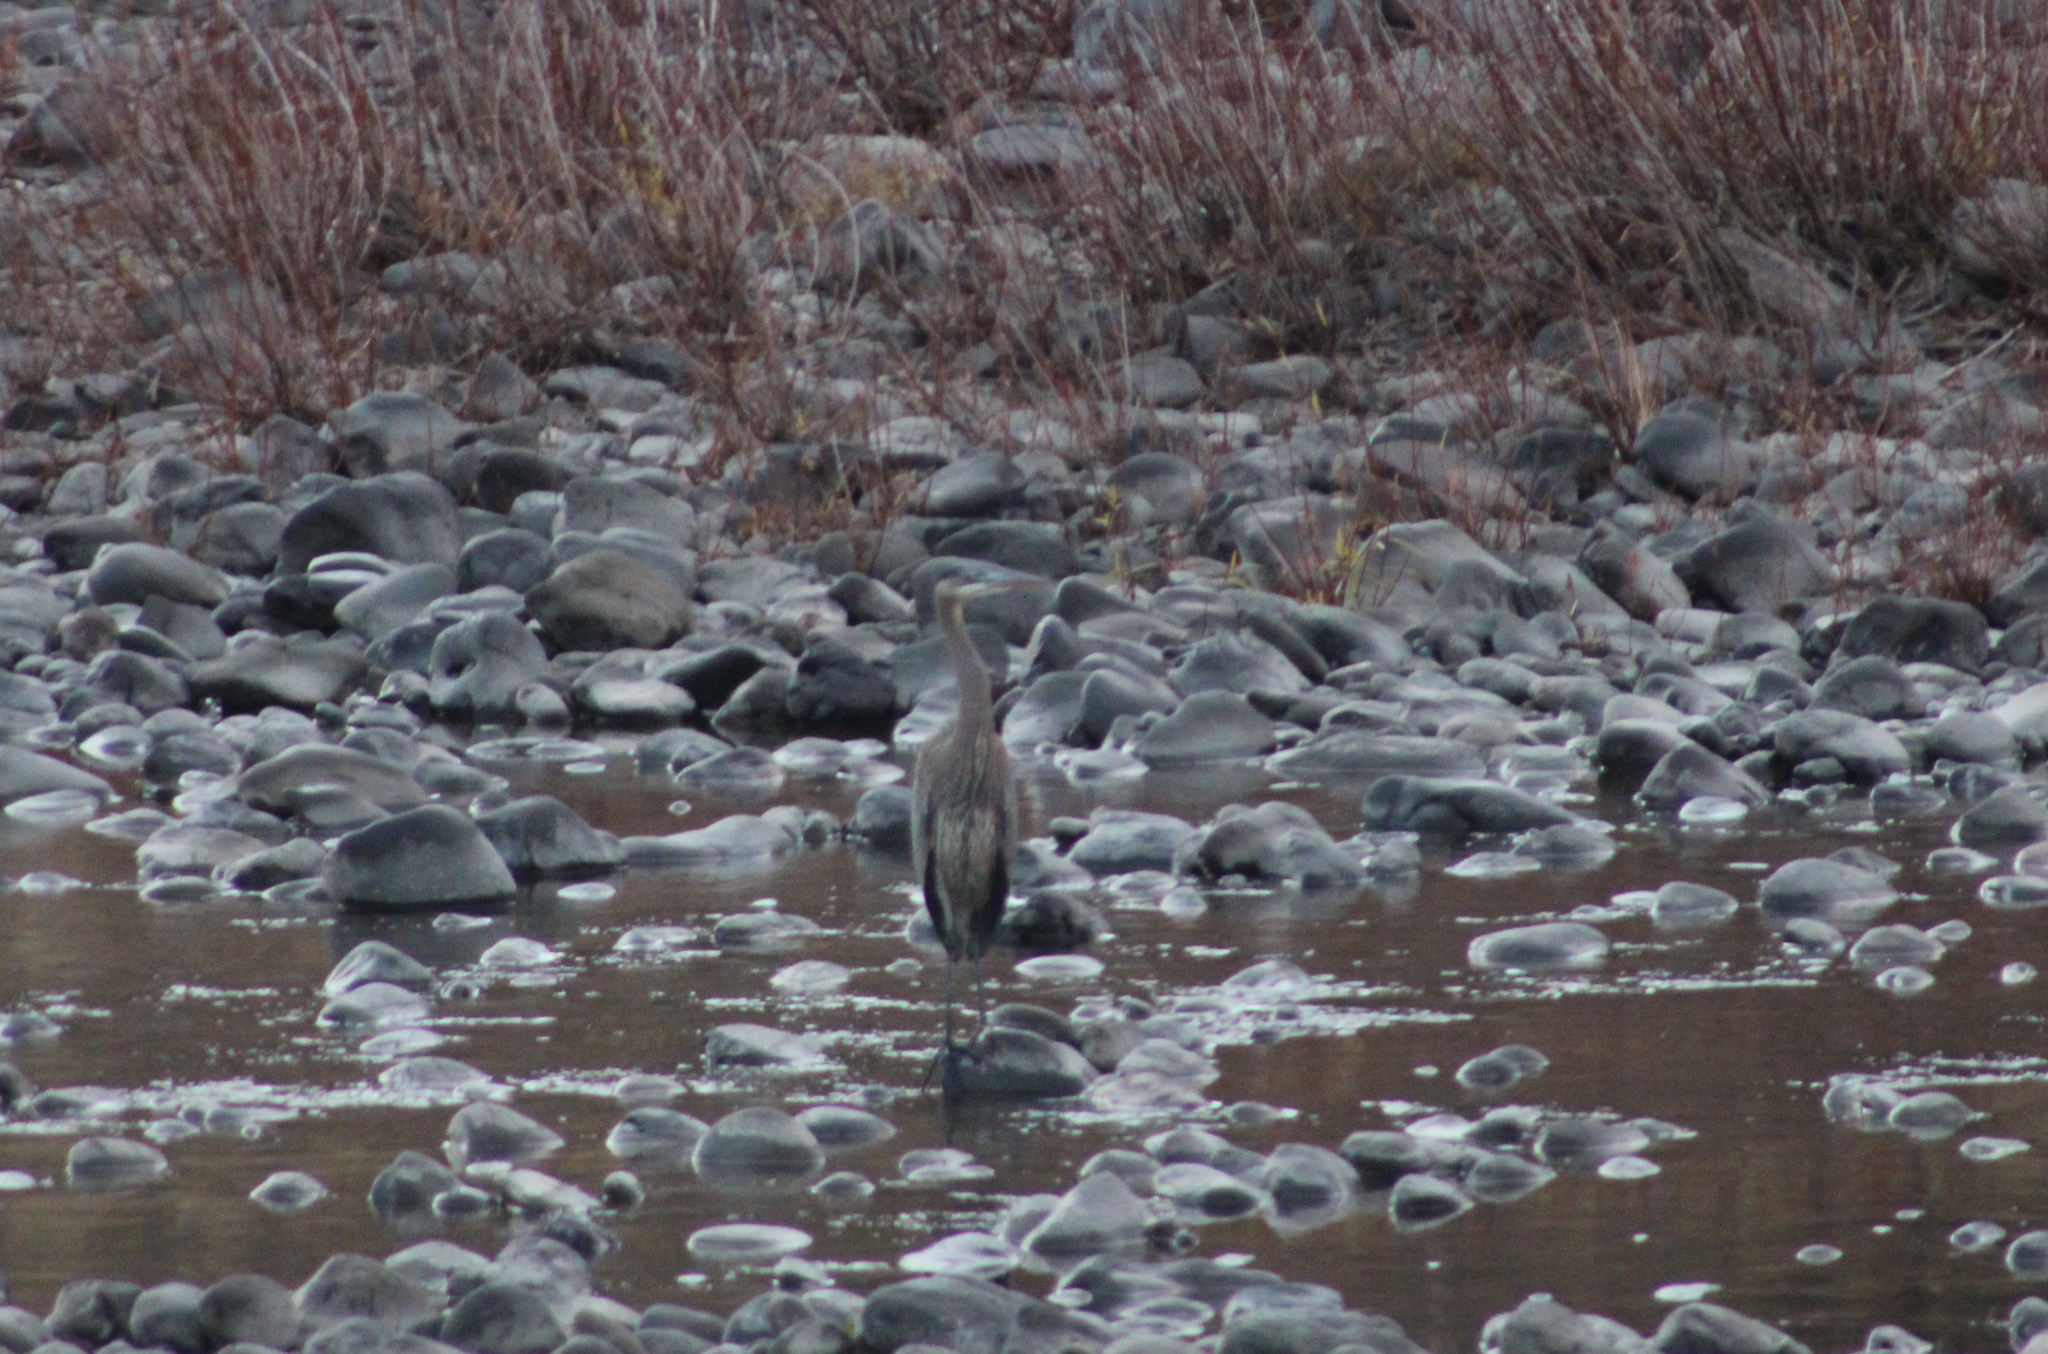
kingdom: Animalia
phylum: Chordata
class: Aves
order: Pelecaniformes
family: Ardeidae
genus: Ardea
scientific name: Ardea herodias
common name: Great blue heron
